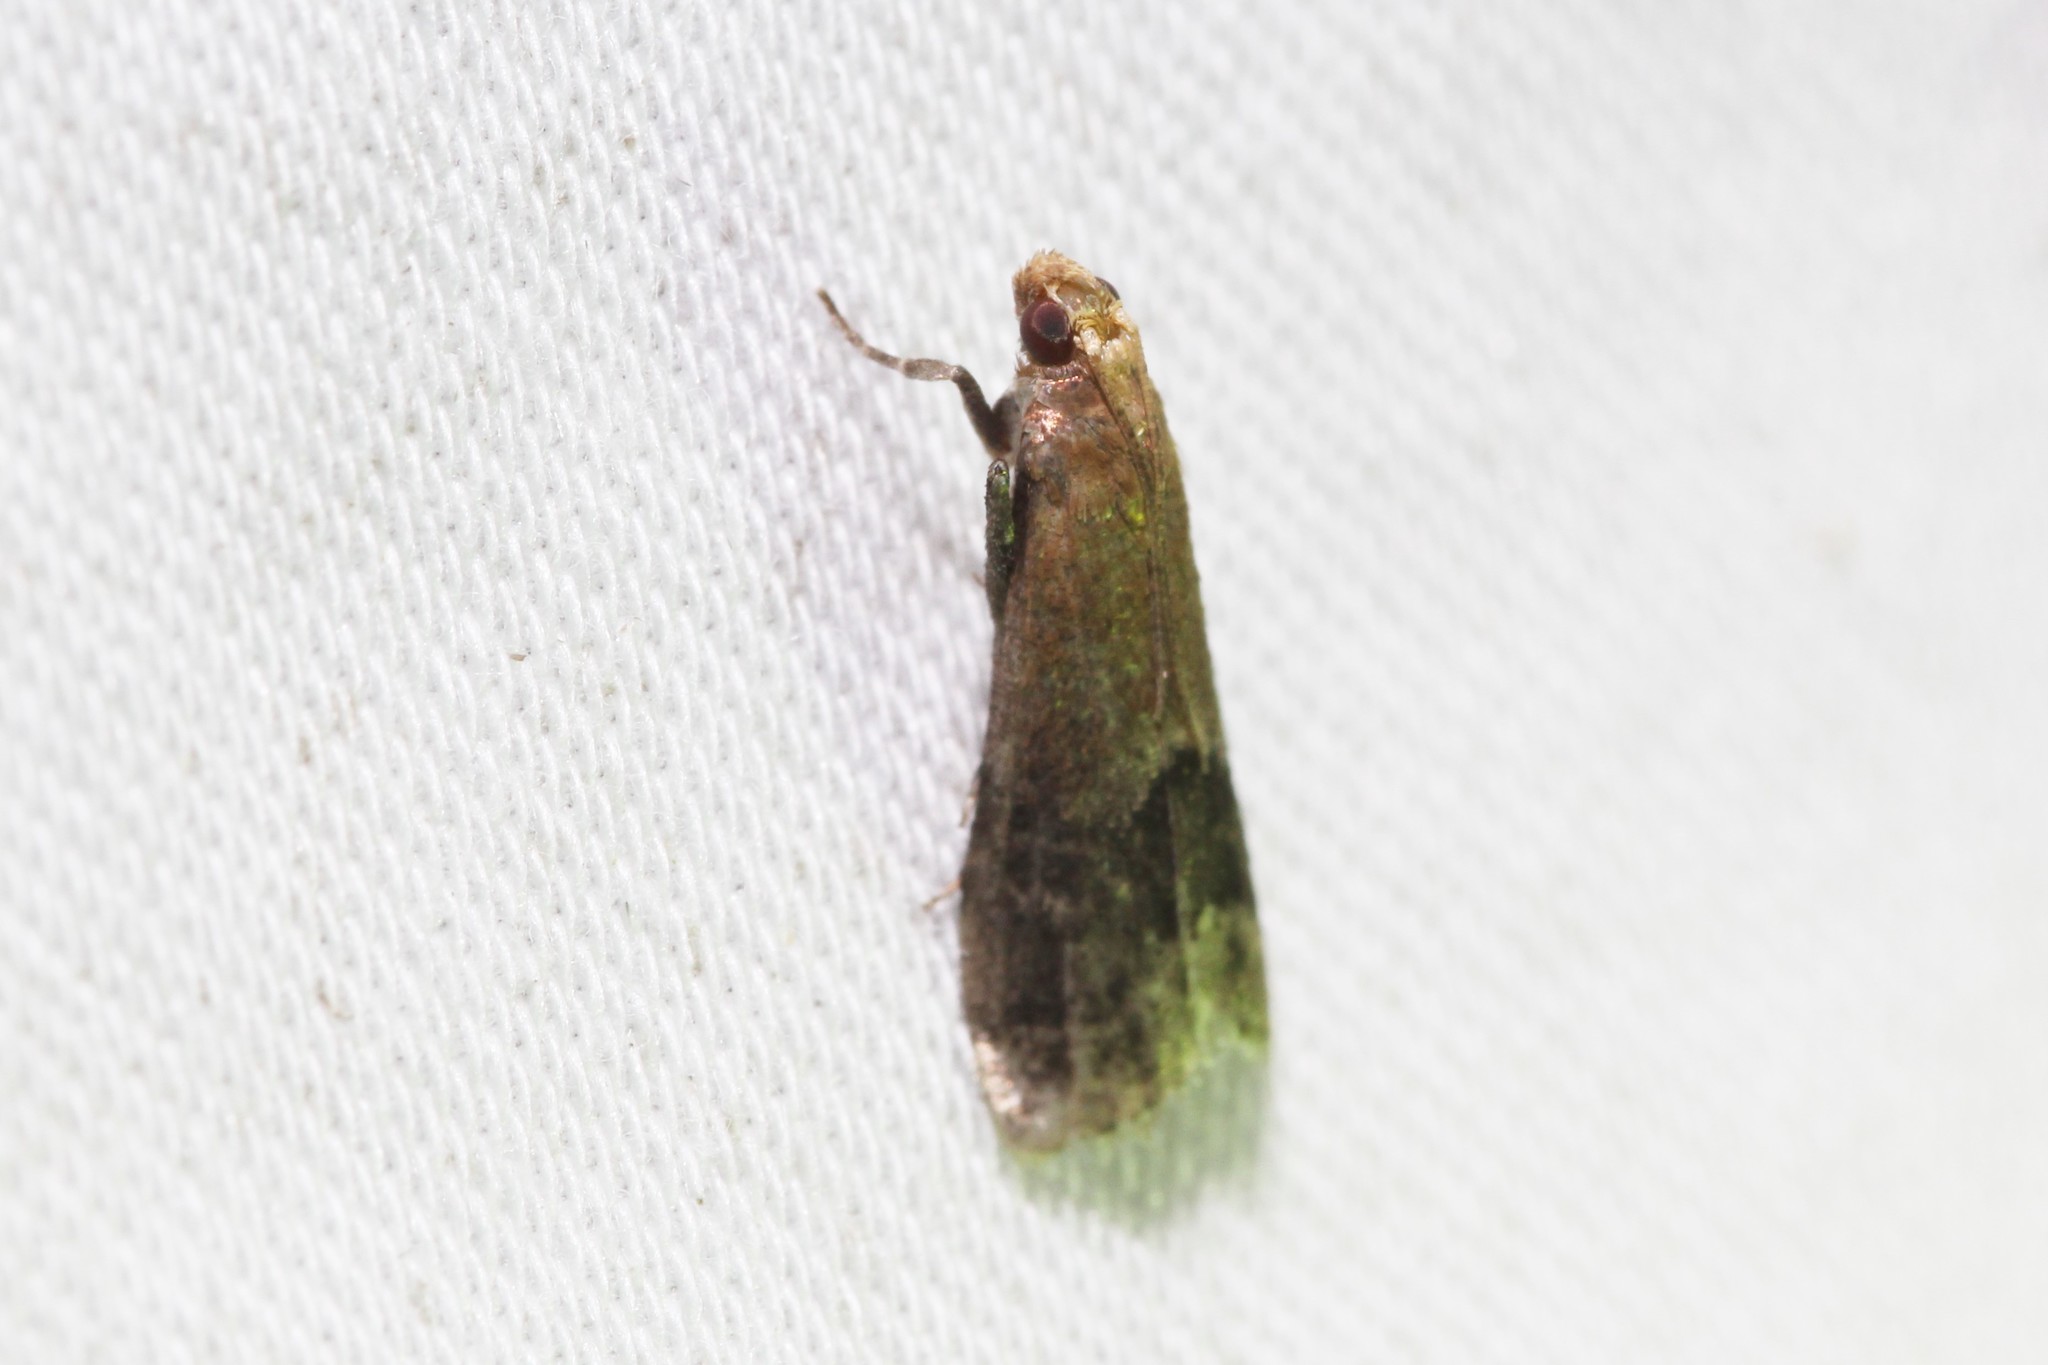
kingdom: Animalia
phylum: Arthropoda
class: Insecta
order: Lepidoptera
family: Pyralidae
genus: Eulogia
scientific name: Eulogia ochrifrontella
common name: Broad-banded eulogia moth
